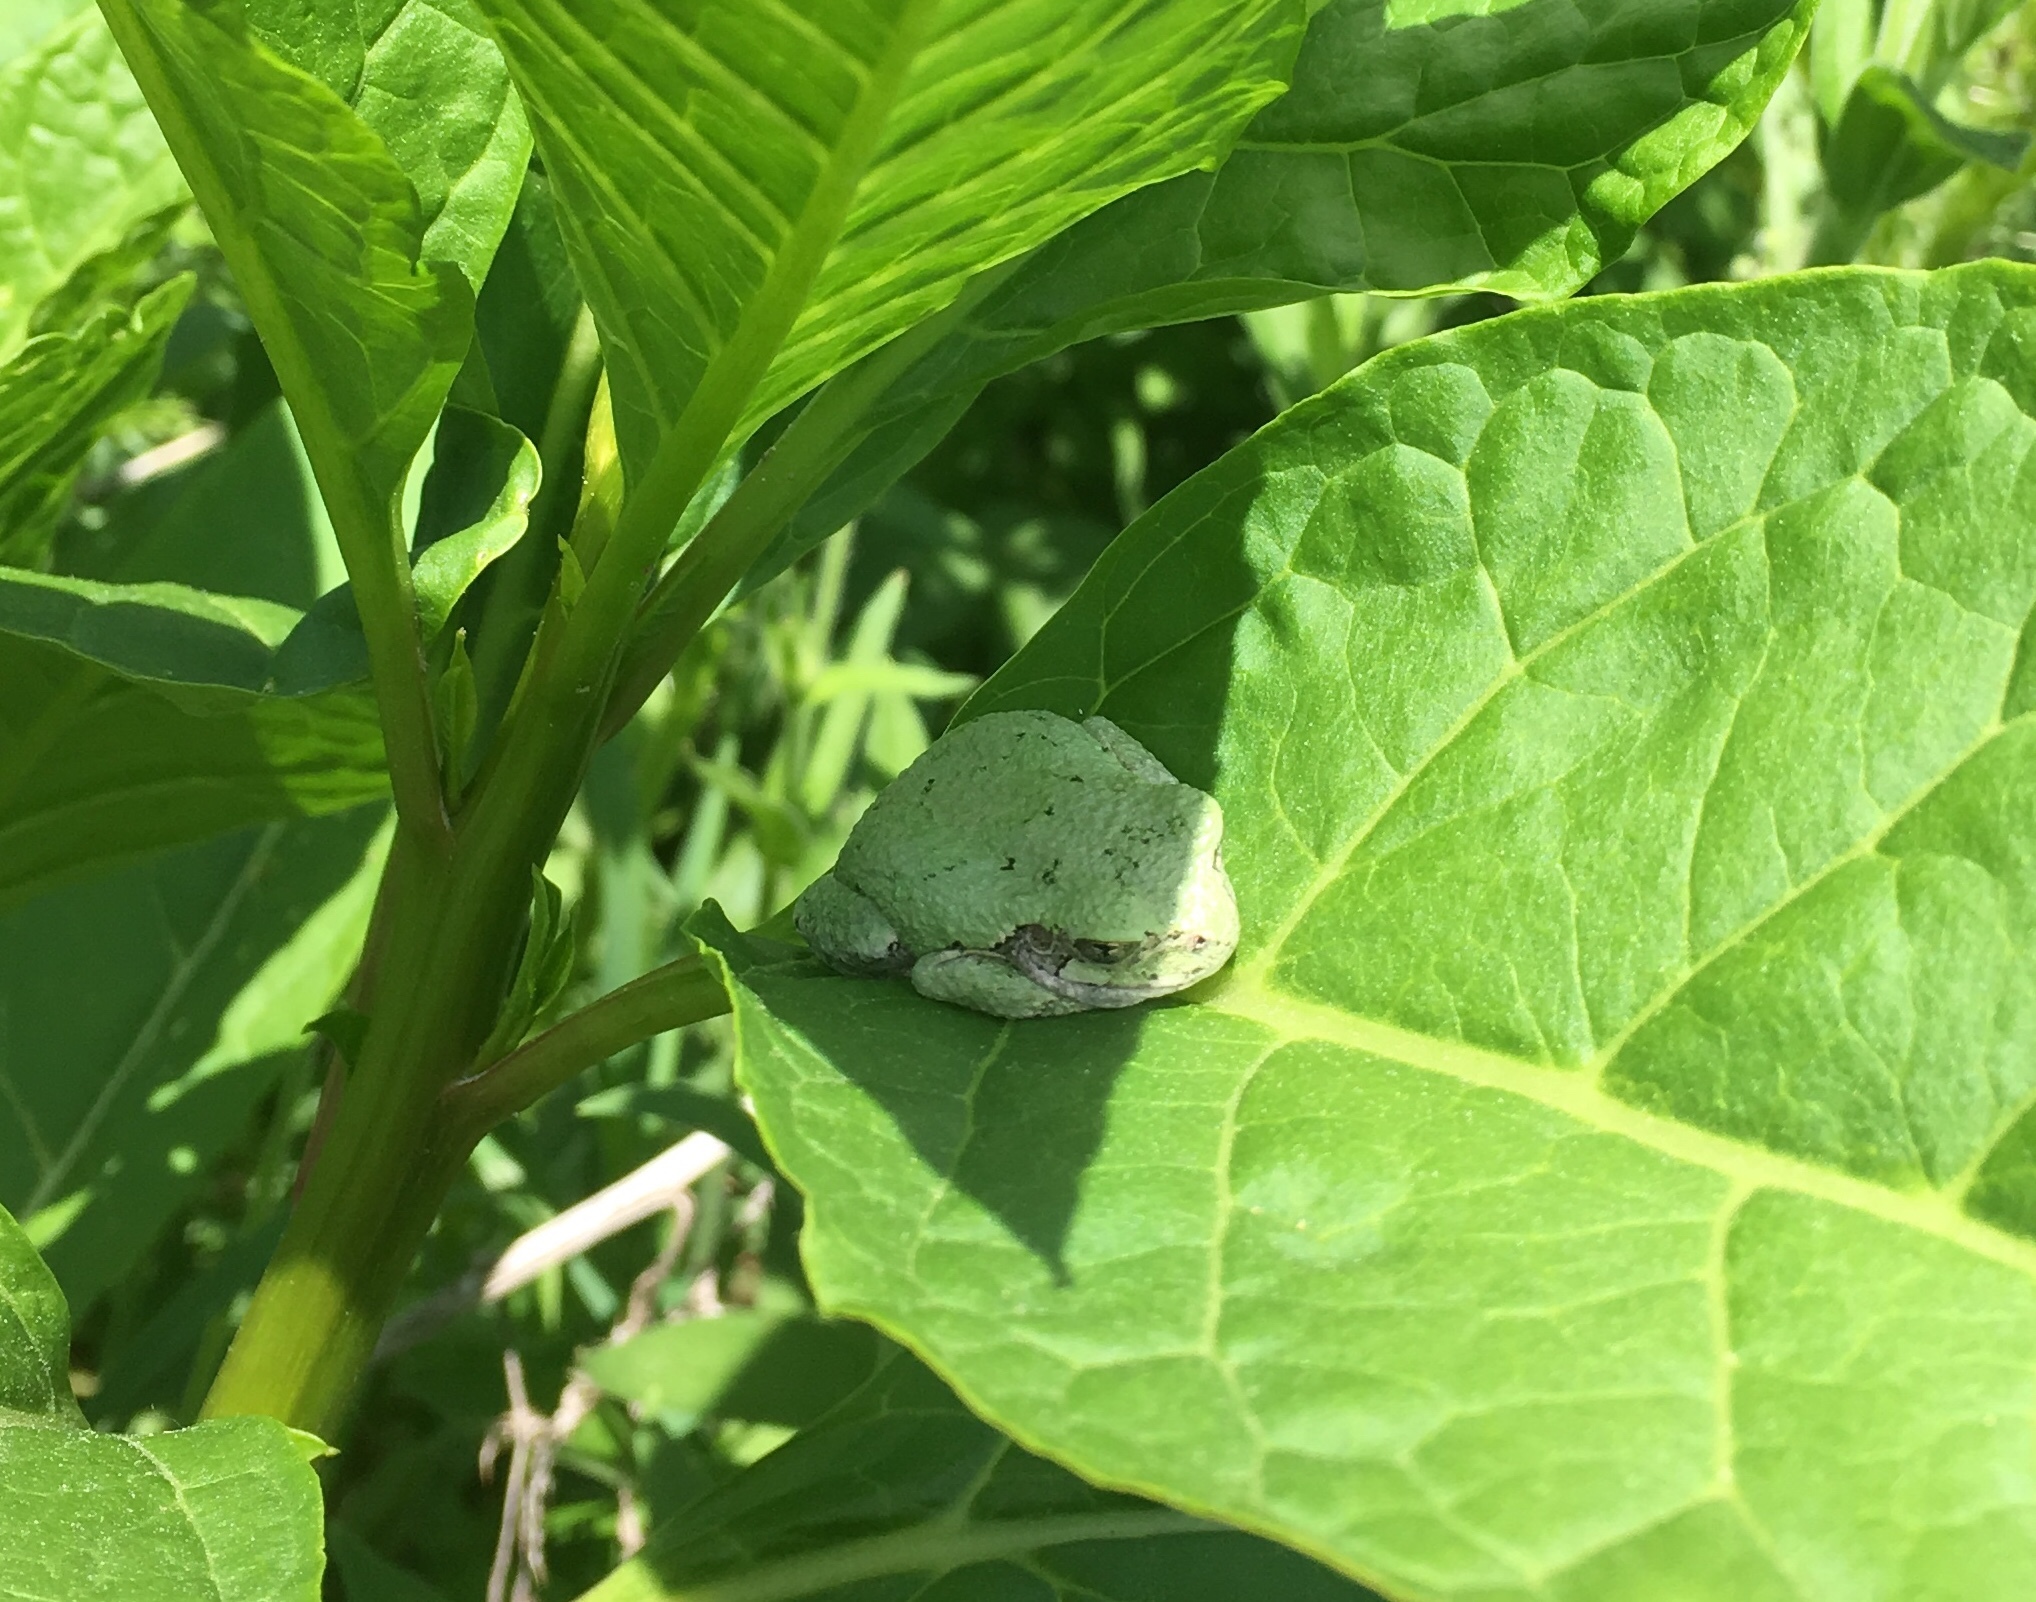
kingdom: Animalia
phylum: Chordata
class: Amphibia
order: Anura
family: Hylidae
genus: Hyla
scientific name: Hyla
